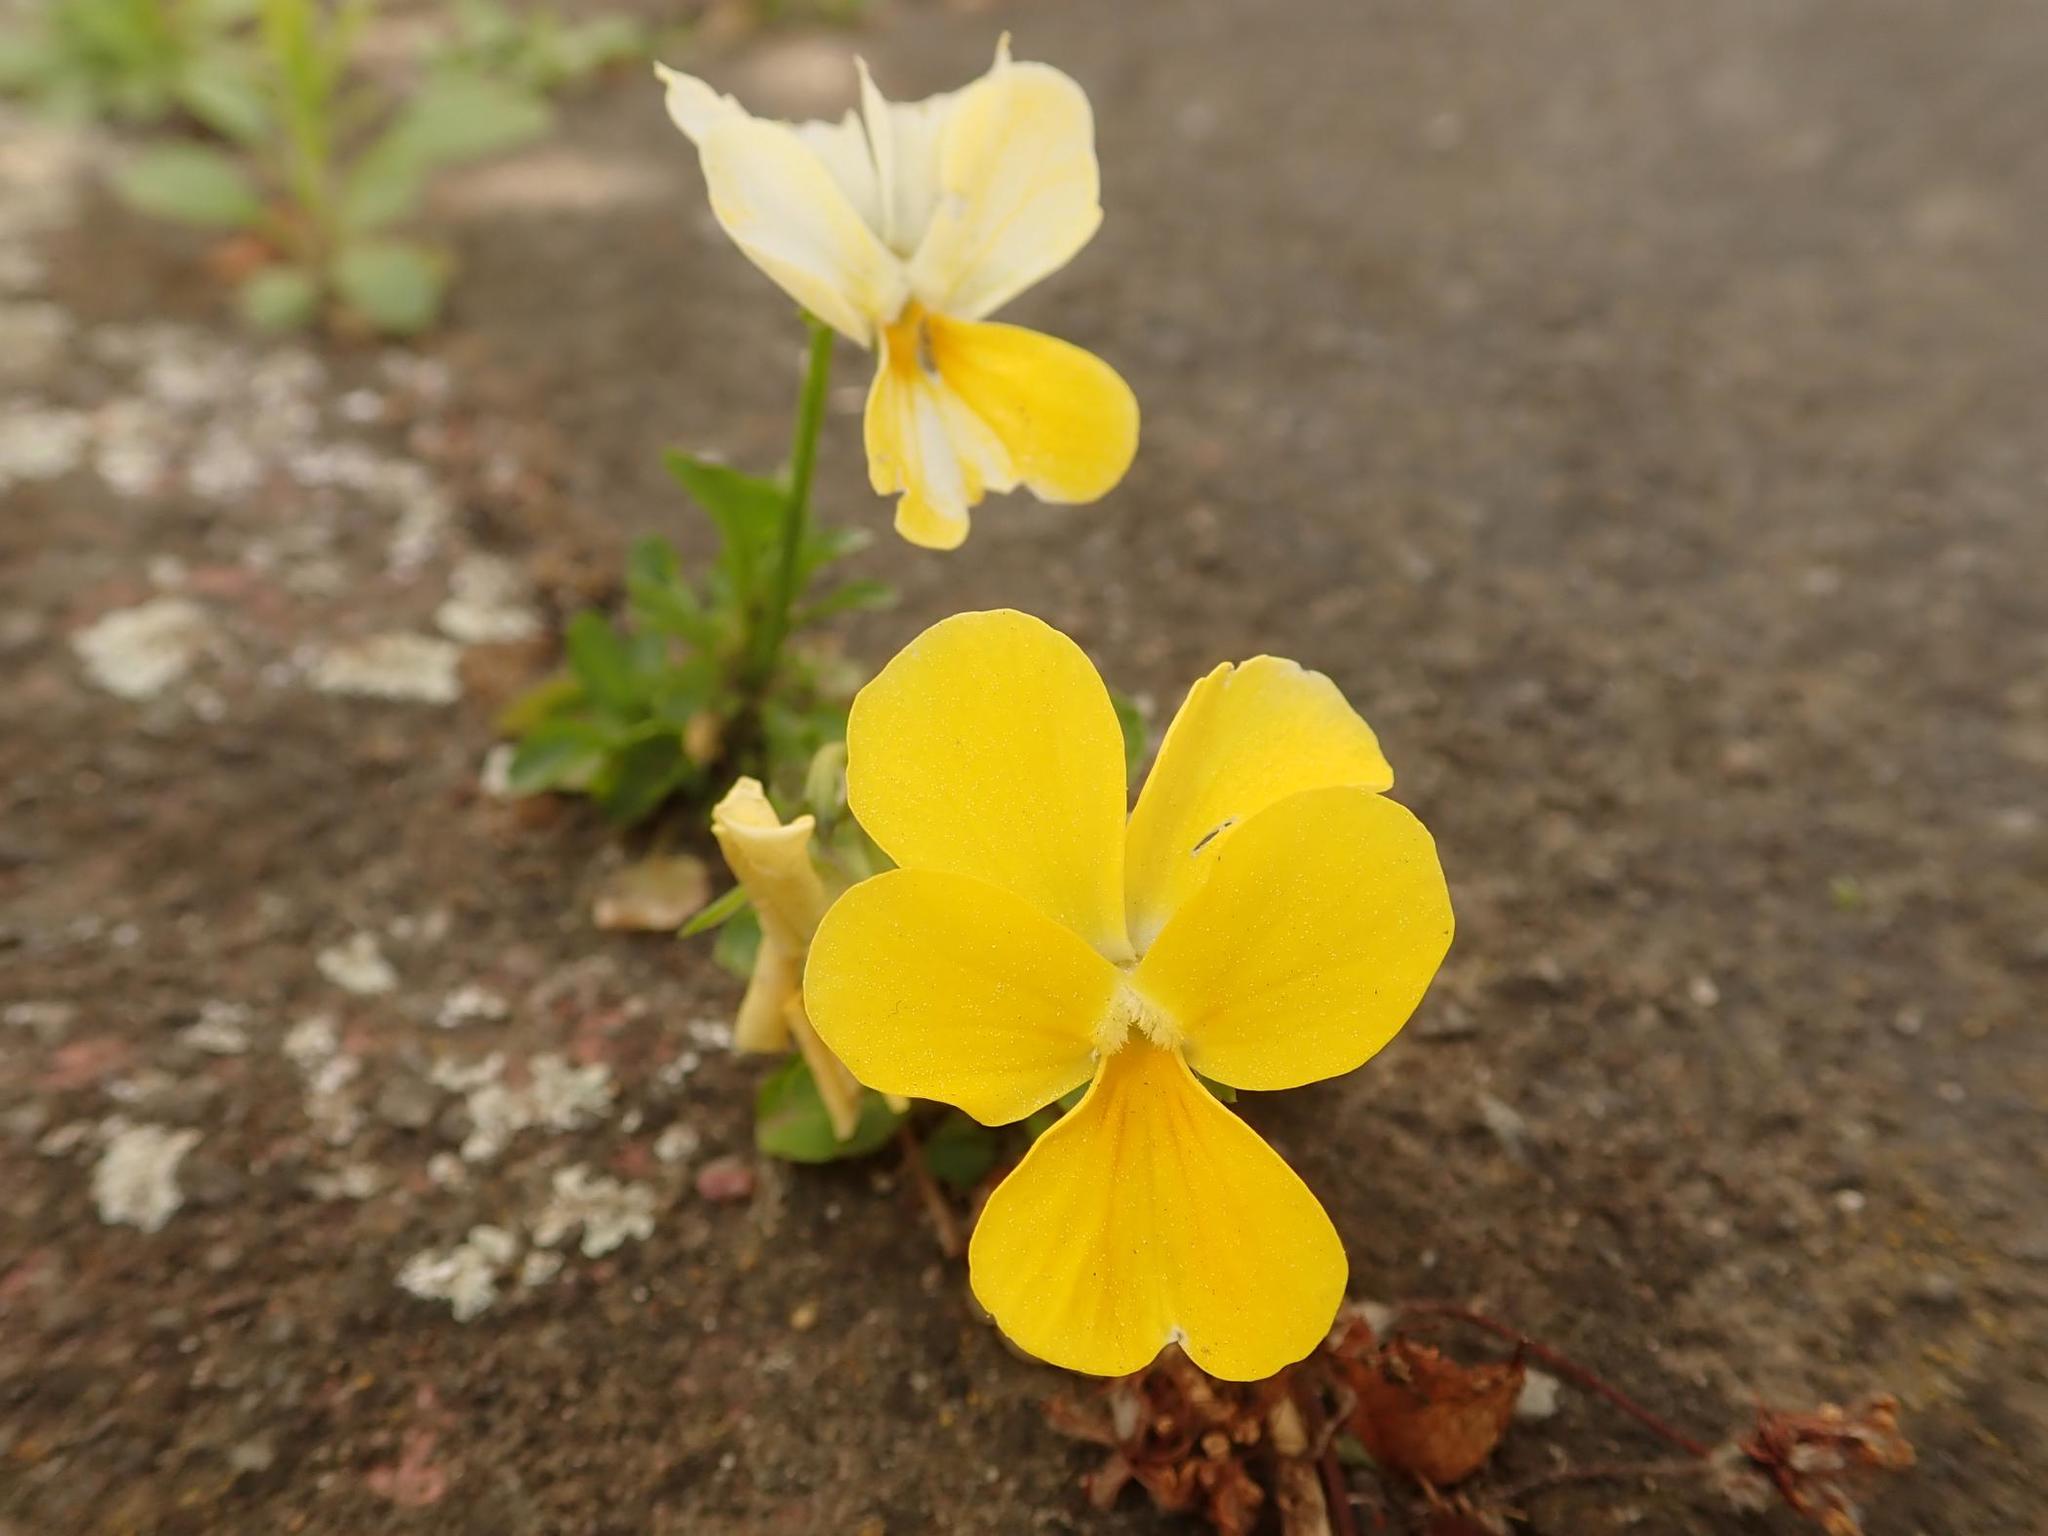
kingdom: Plantae
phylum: Tracheophyta
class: Magnoliopsida
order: Malpighiales
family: Violaceae
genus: Viola
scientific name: Viola wittrockiana
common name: Garden pansy
